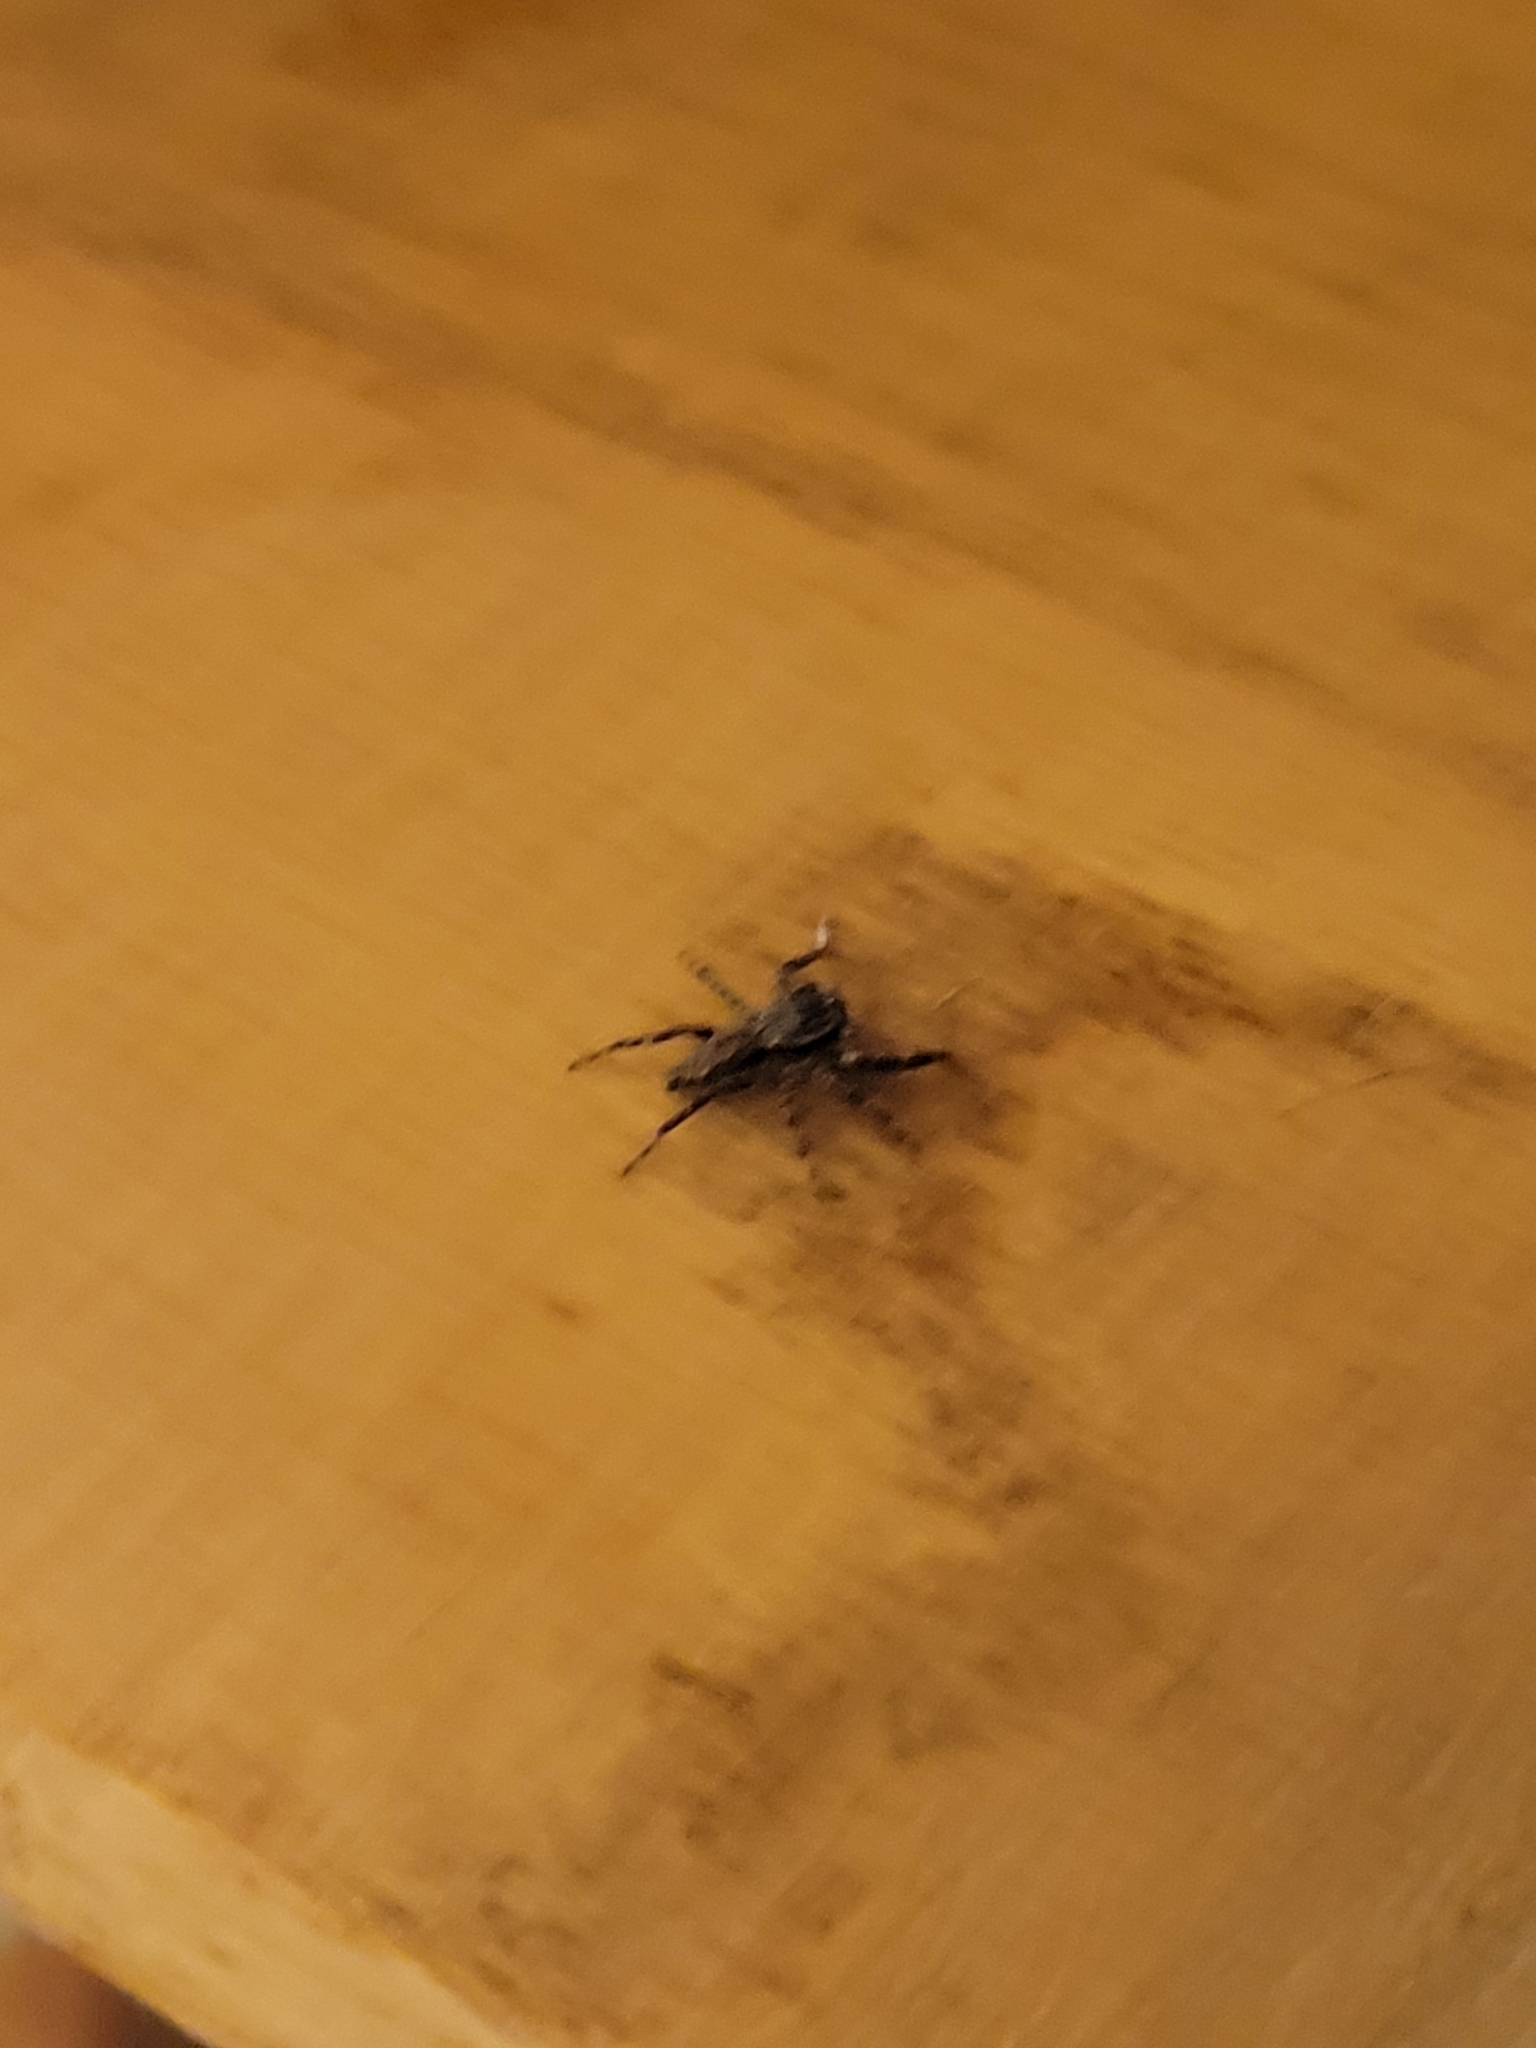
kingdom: Animalia
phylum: Arthropoda
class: Arachnida
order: Araneae
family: Salticidae
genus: Platycryptus
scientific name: Platycryptus undatus
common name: Tan jumping spider
